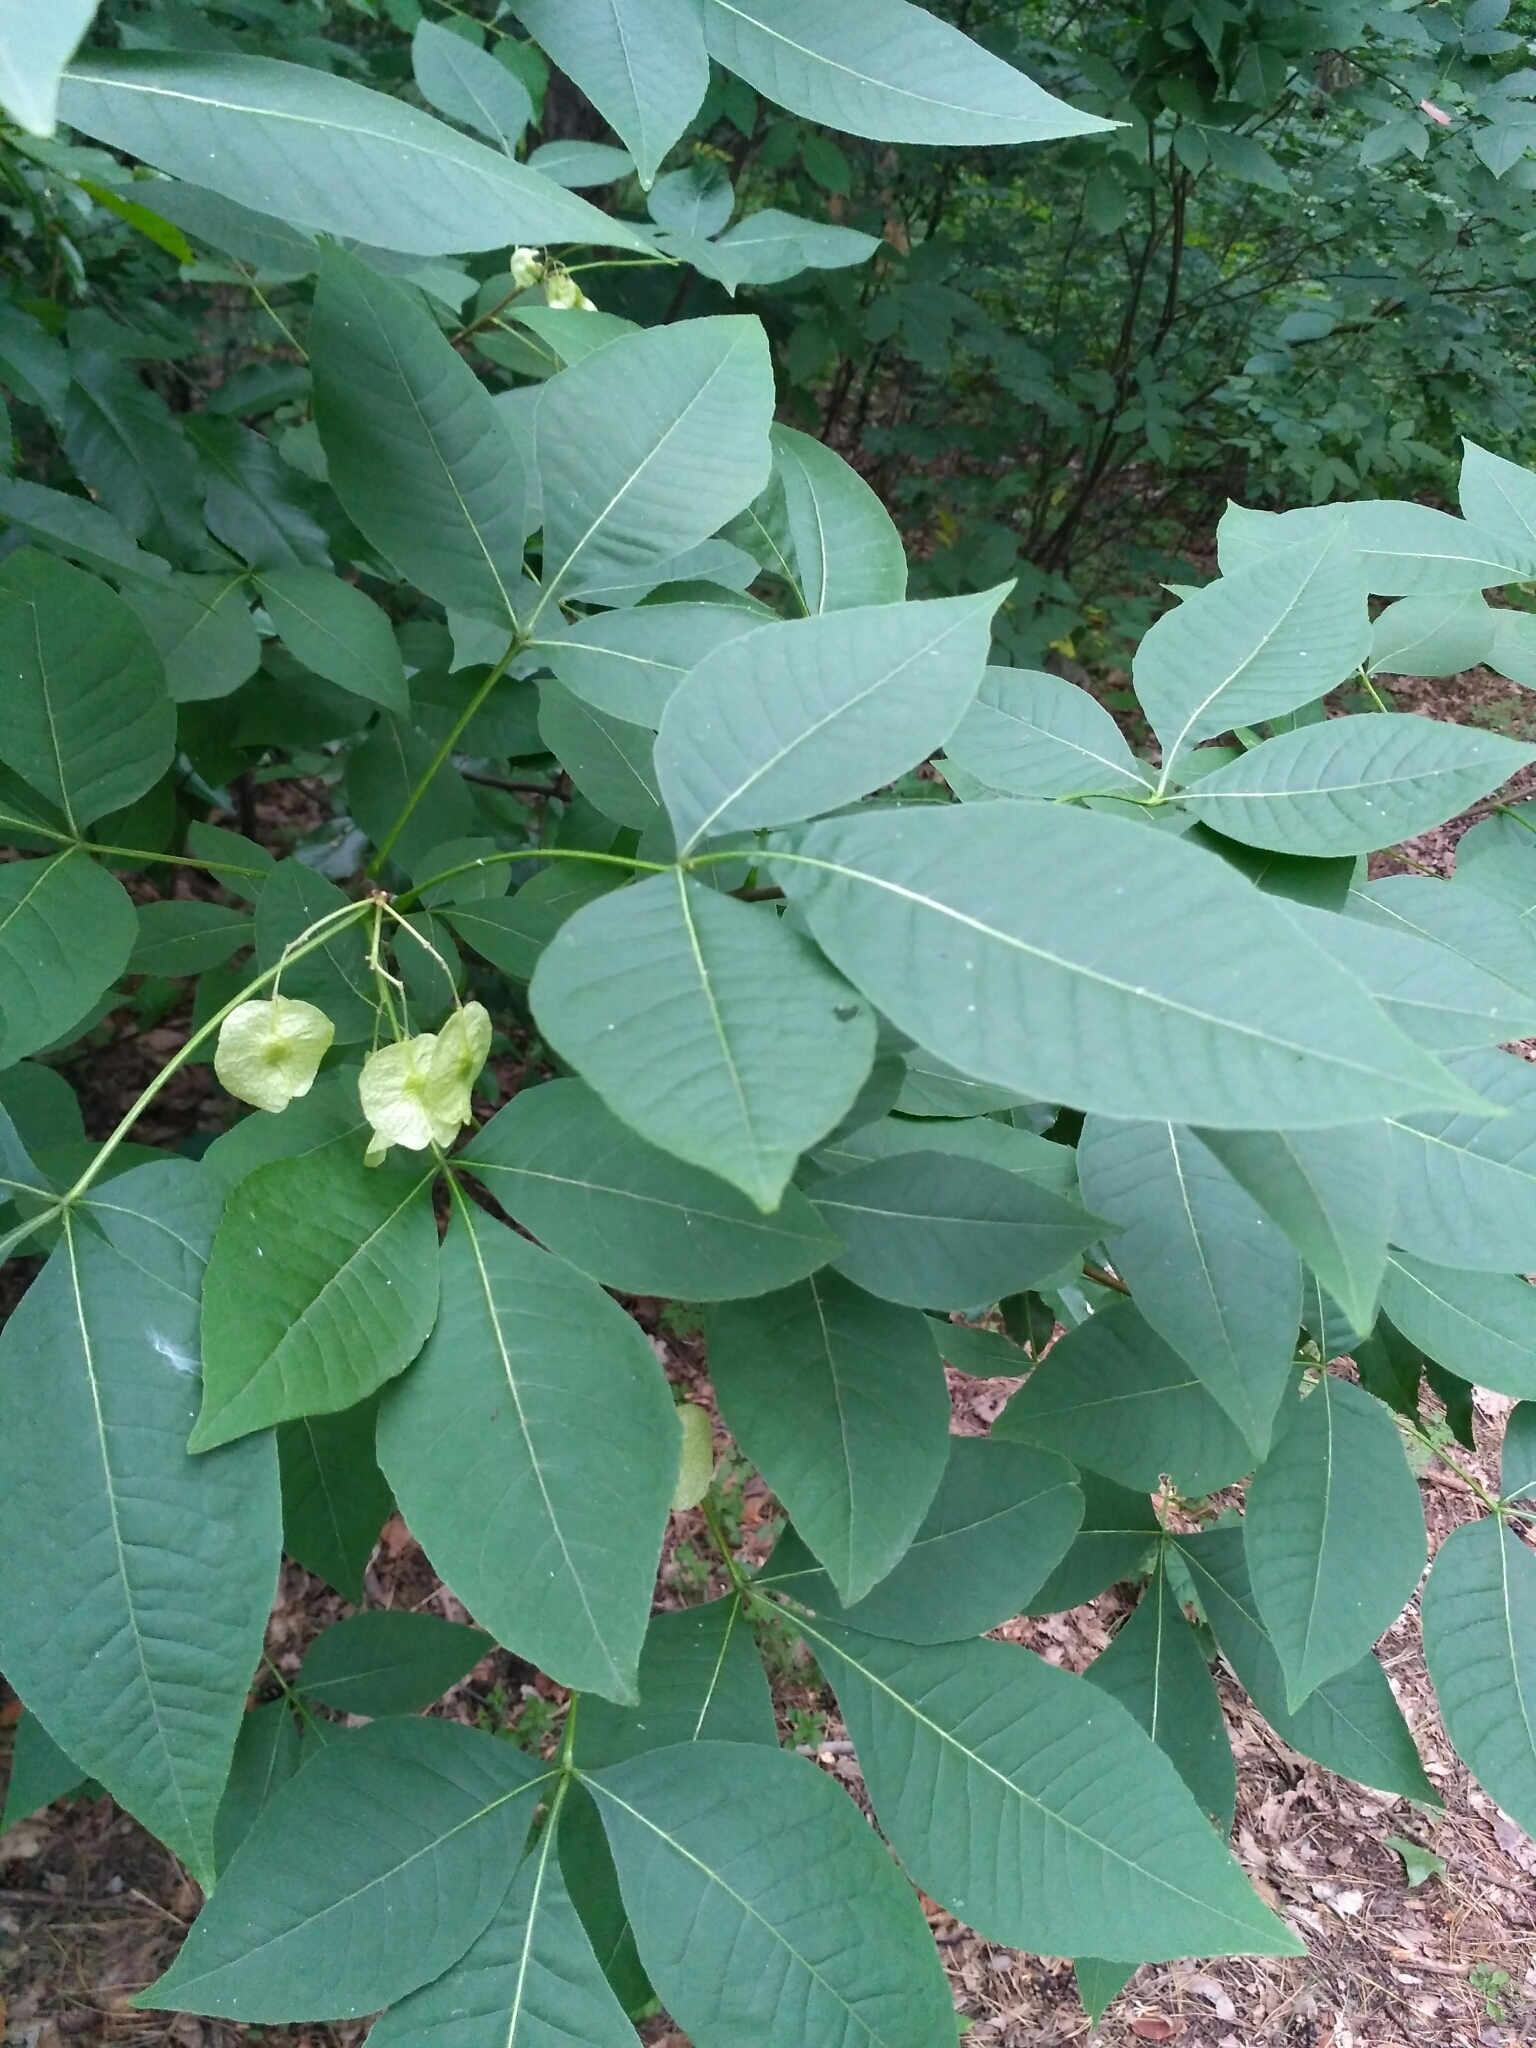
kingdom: Plantae
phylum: Tracheophyta
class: Magnoliopsida
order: Sapindales
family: Rutaceae
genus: Ptelea
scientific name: Ptelea trifoliata
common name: Common hop-tree
